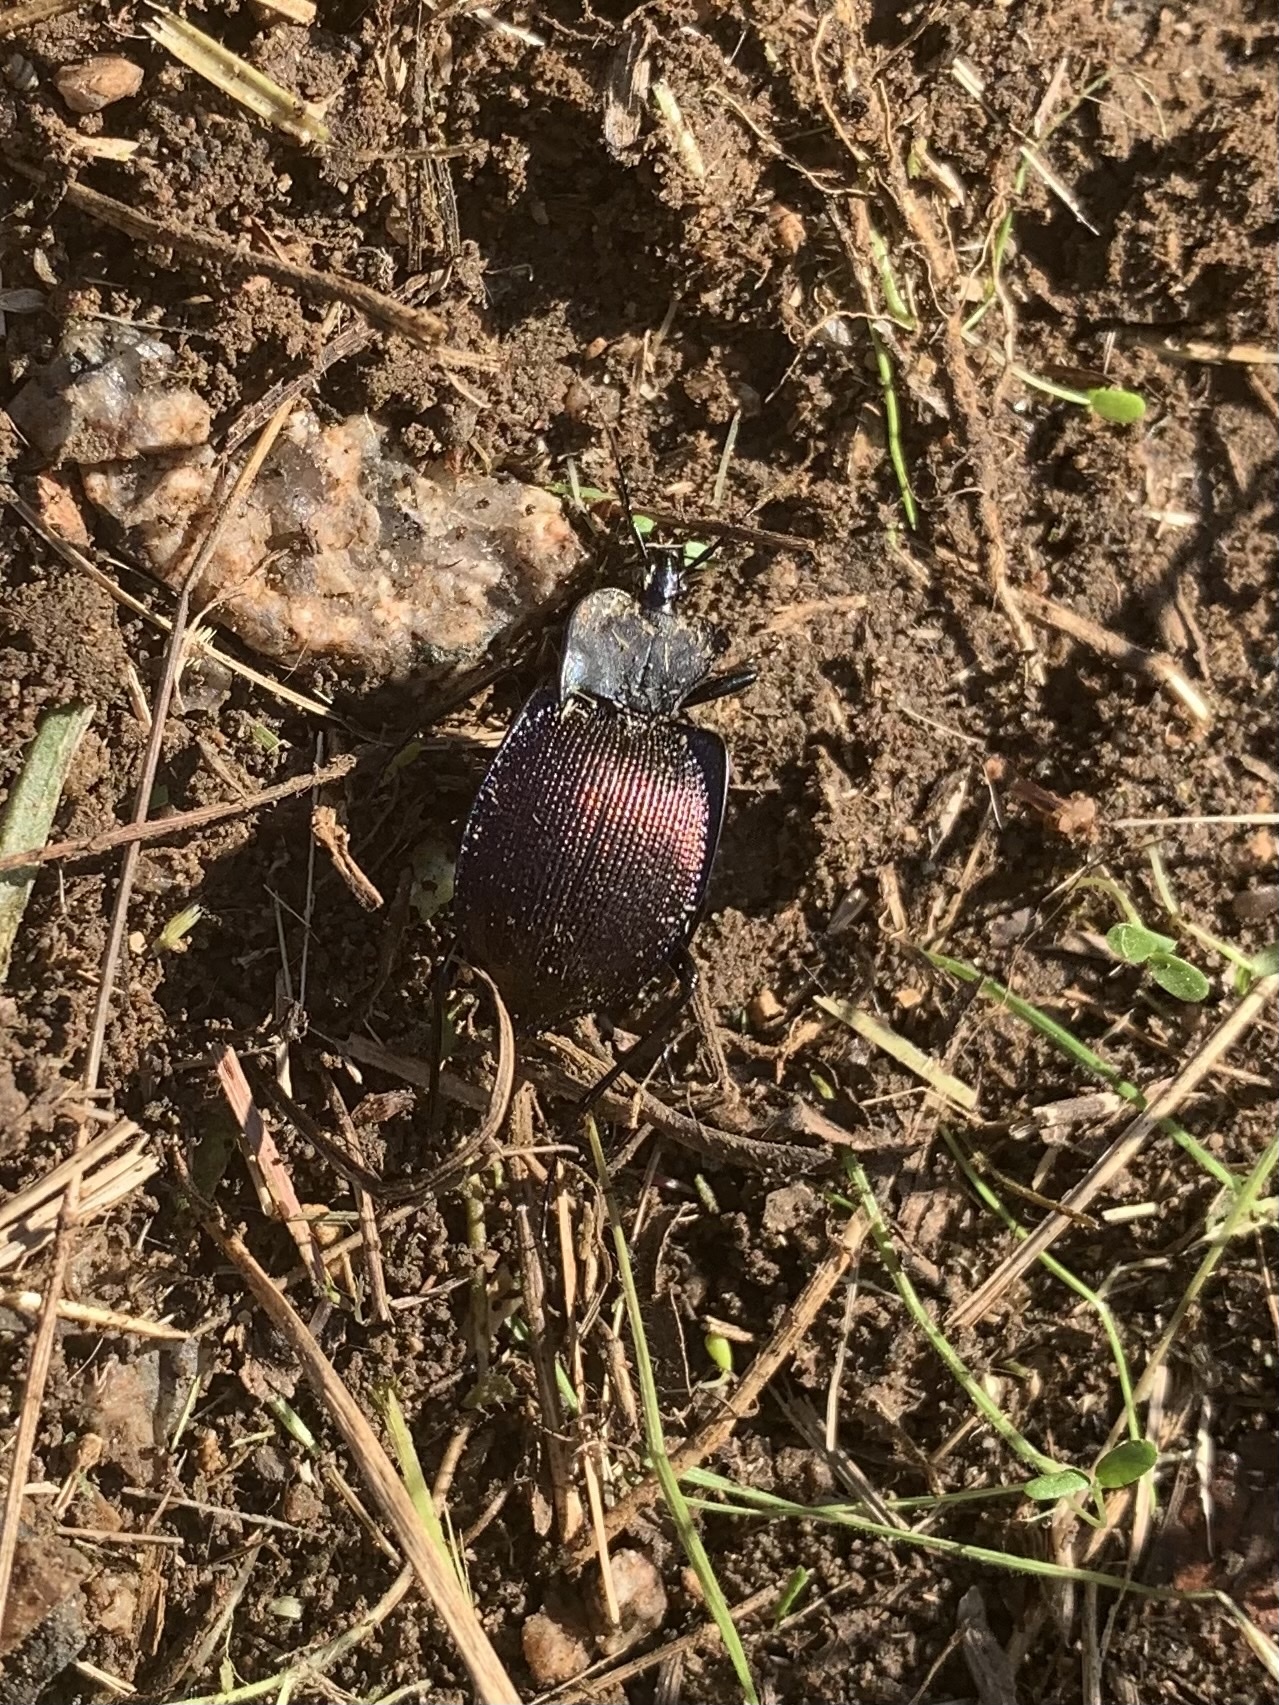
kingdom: Animalia
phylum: Arthropoda
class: Insecta
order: Coleoptera
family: Carabidae
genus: Scaphinotus
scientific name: Scaphinotus elevatus
